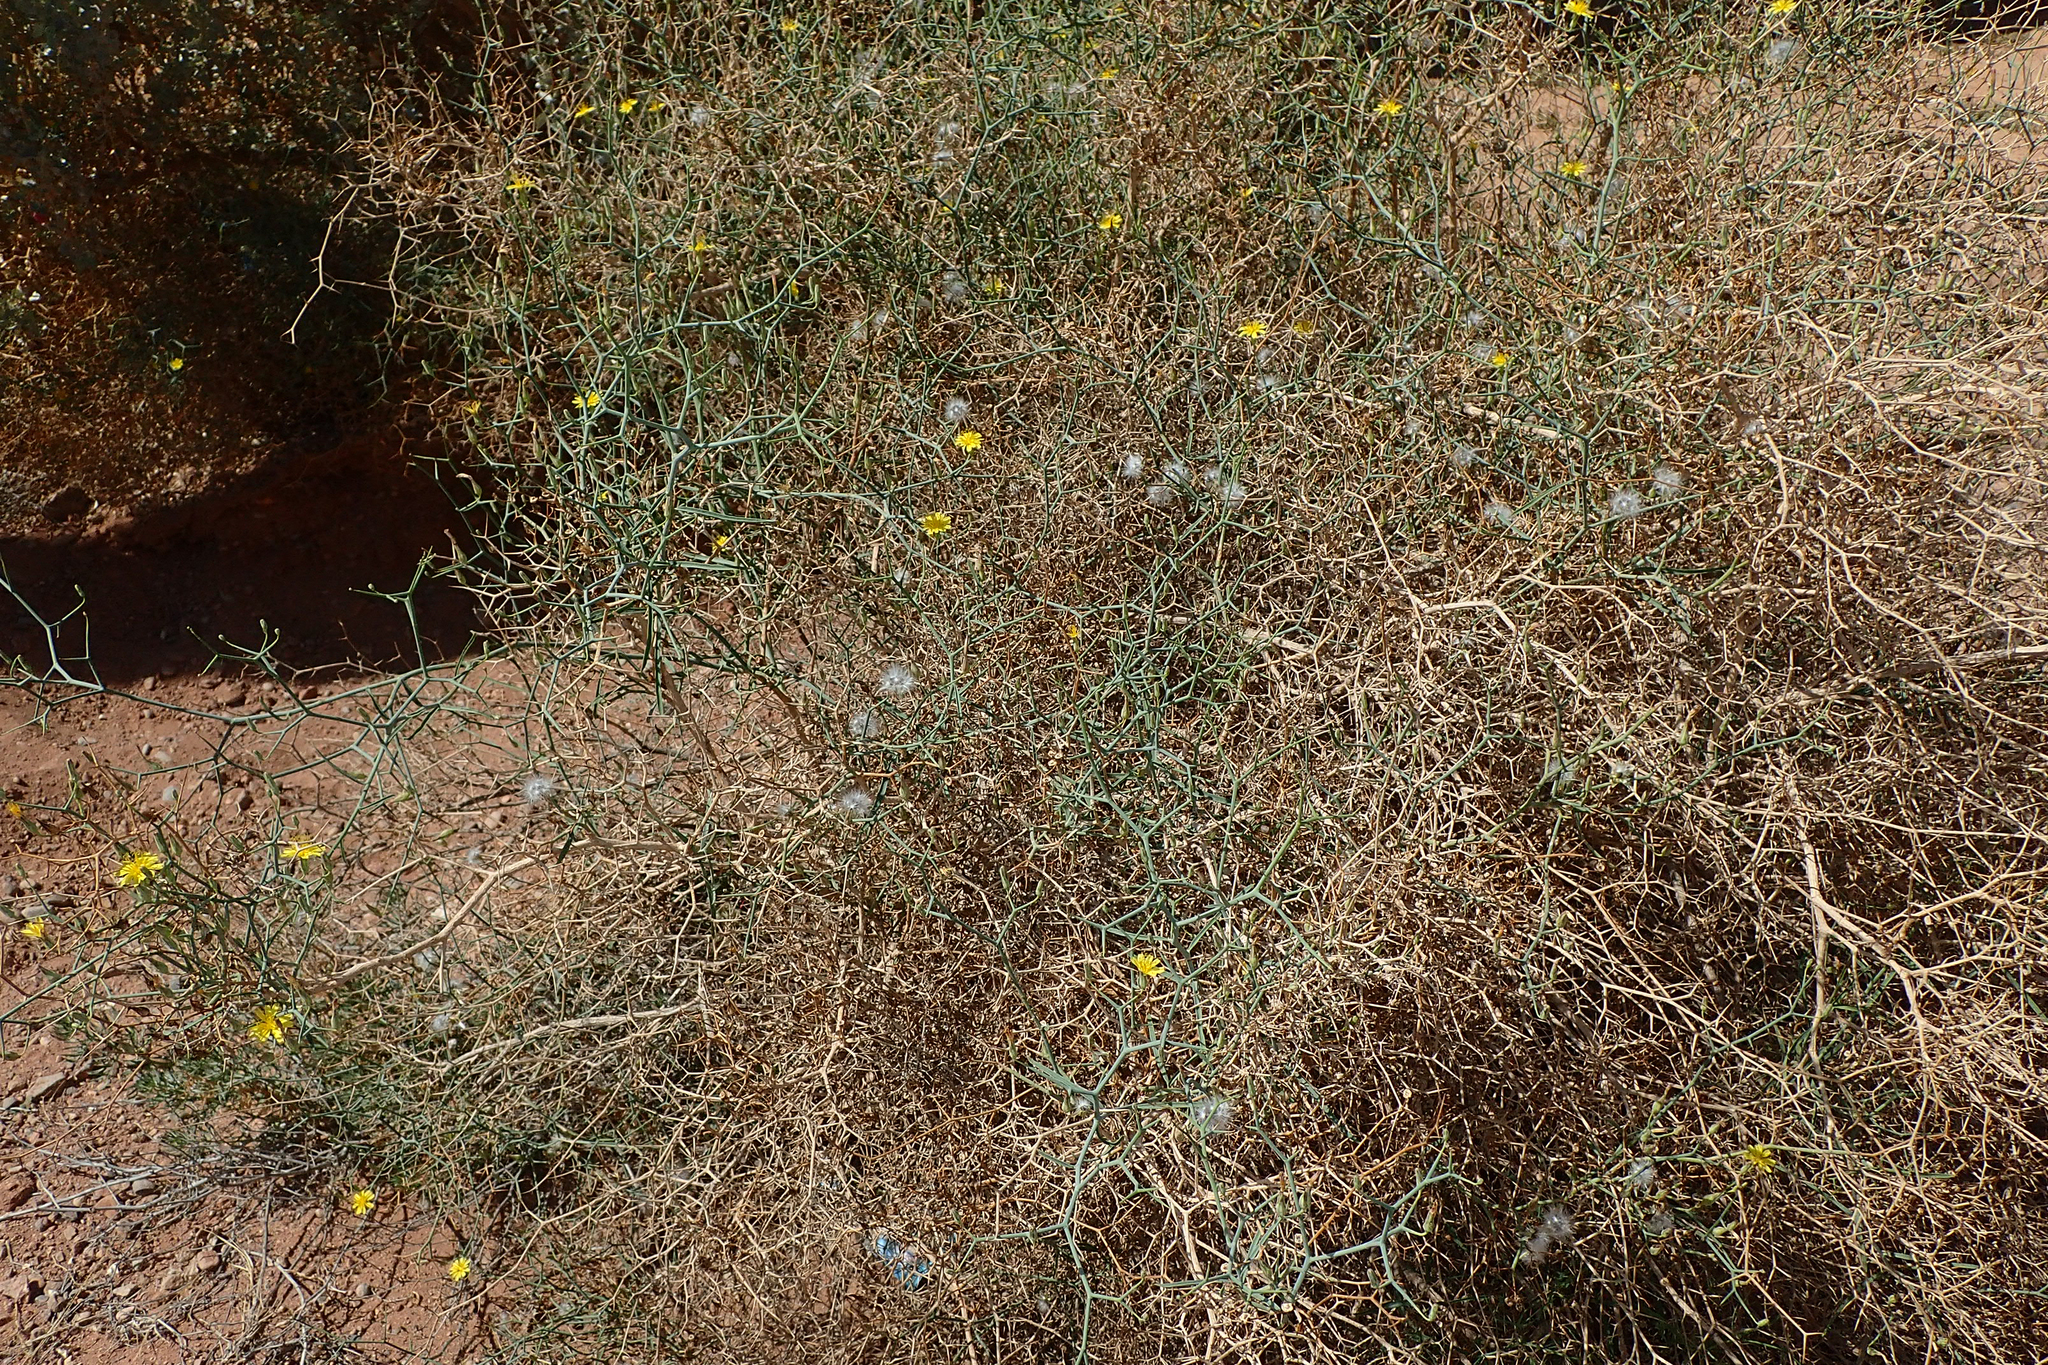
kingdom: Plantae
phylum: Tracheophyta
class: Magnoliopsida
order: Asterales
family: Asteraceae
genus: Launaea
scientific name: Launaea arborescens
